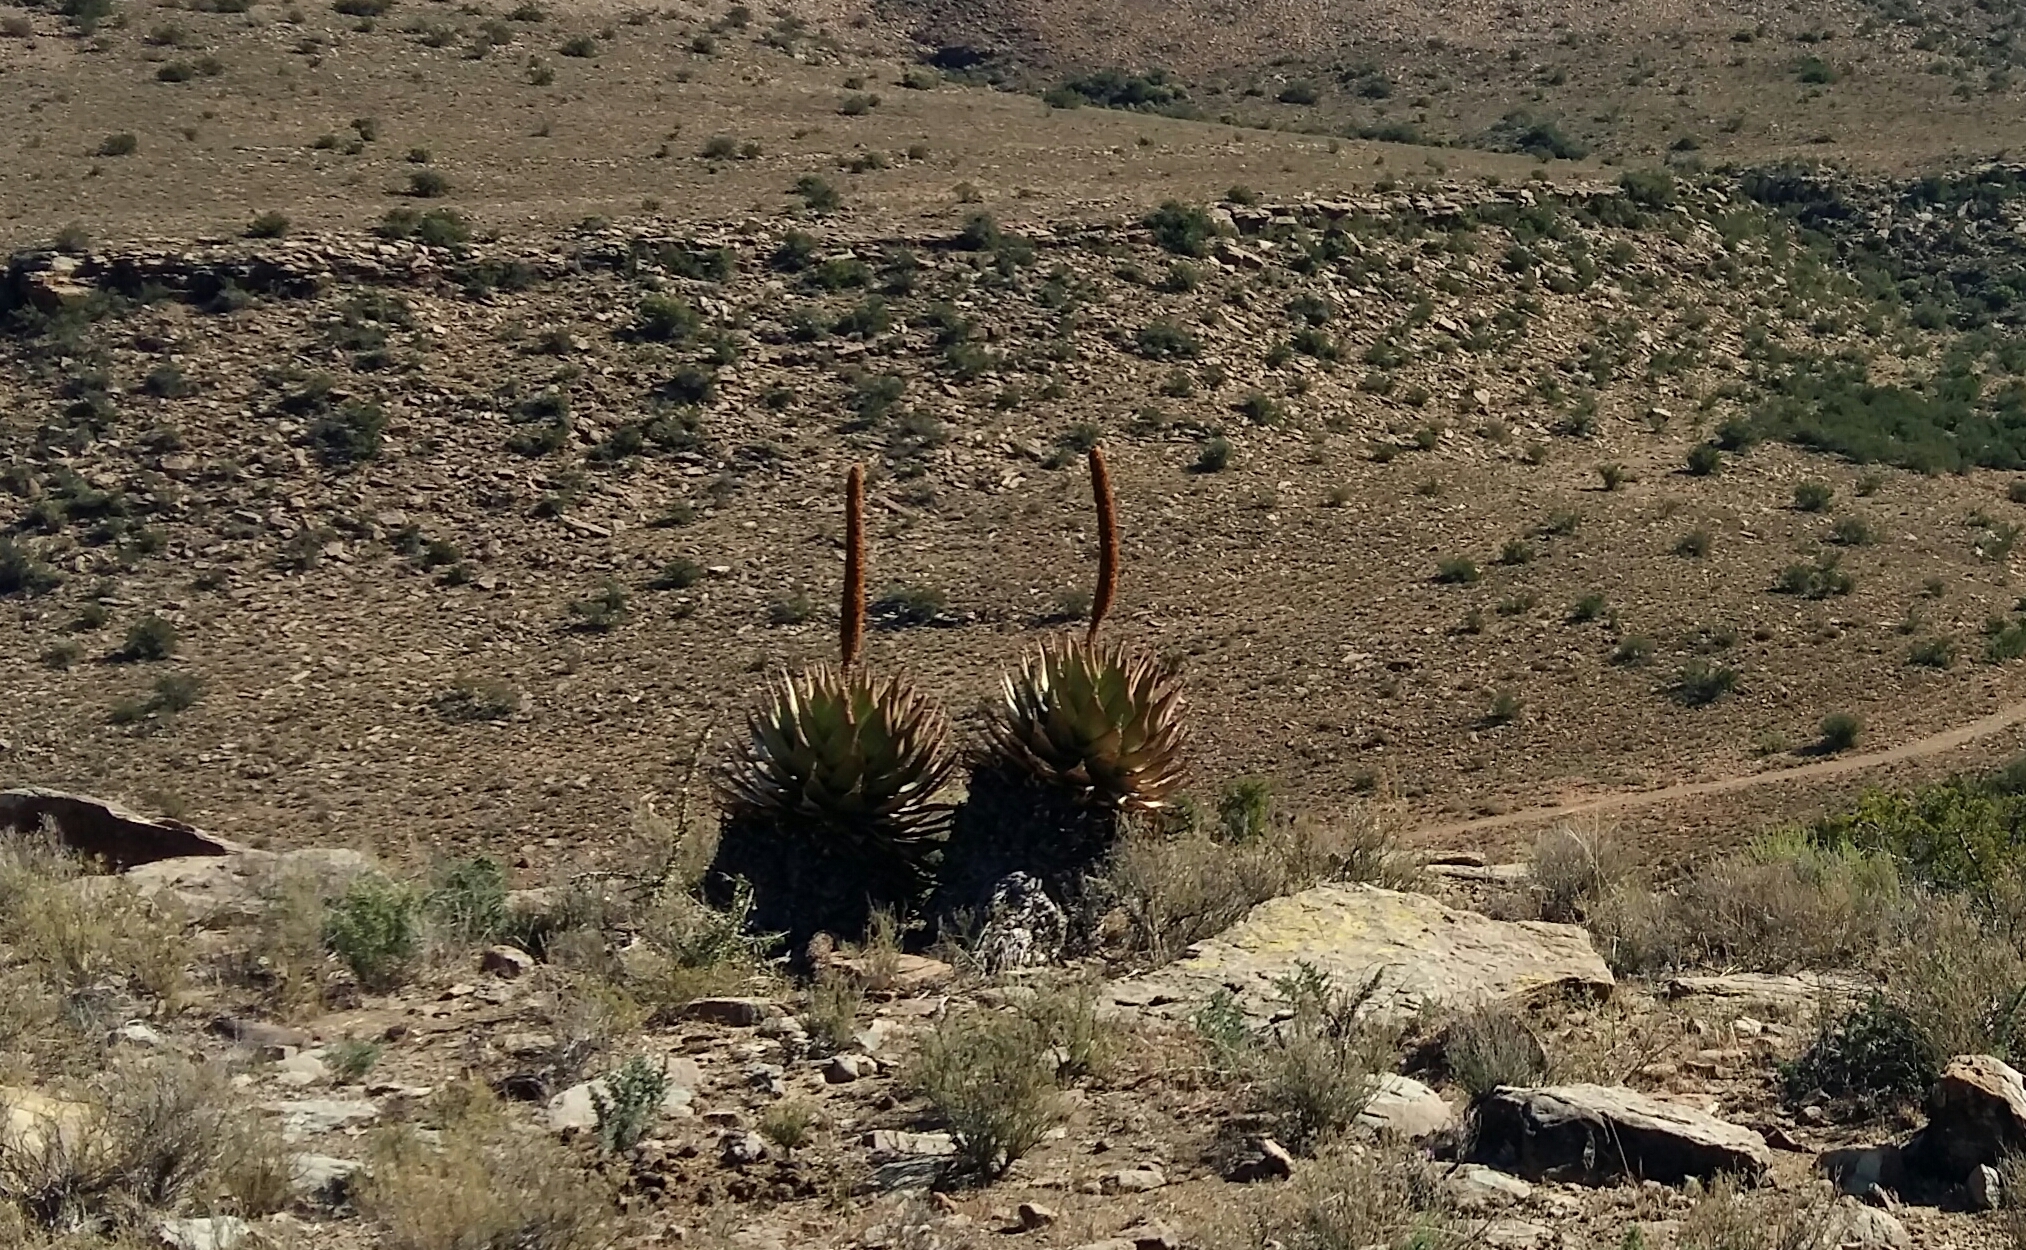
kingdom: Plantae
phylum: Tracheophyta
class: Liliopsida
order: Asparagales
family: Asphodelaceae
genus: Aloe
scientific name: Aloe broomii
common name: Berg alwyn
